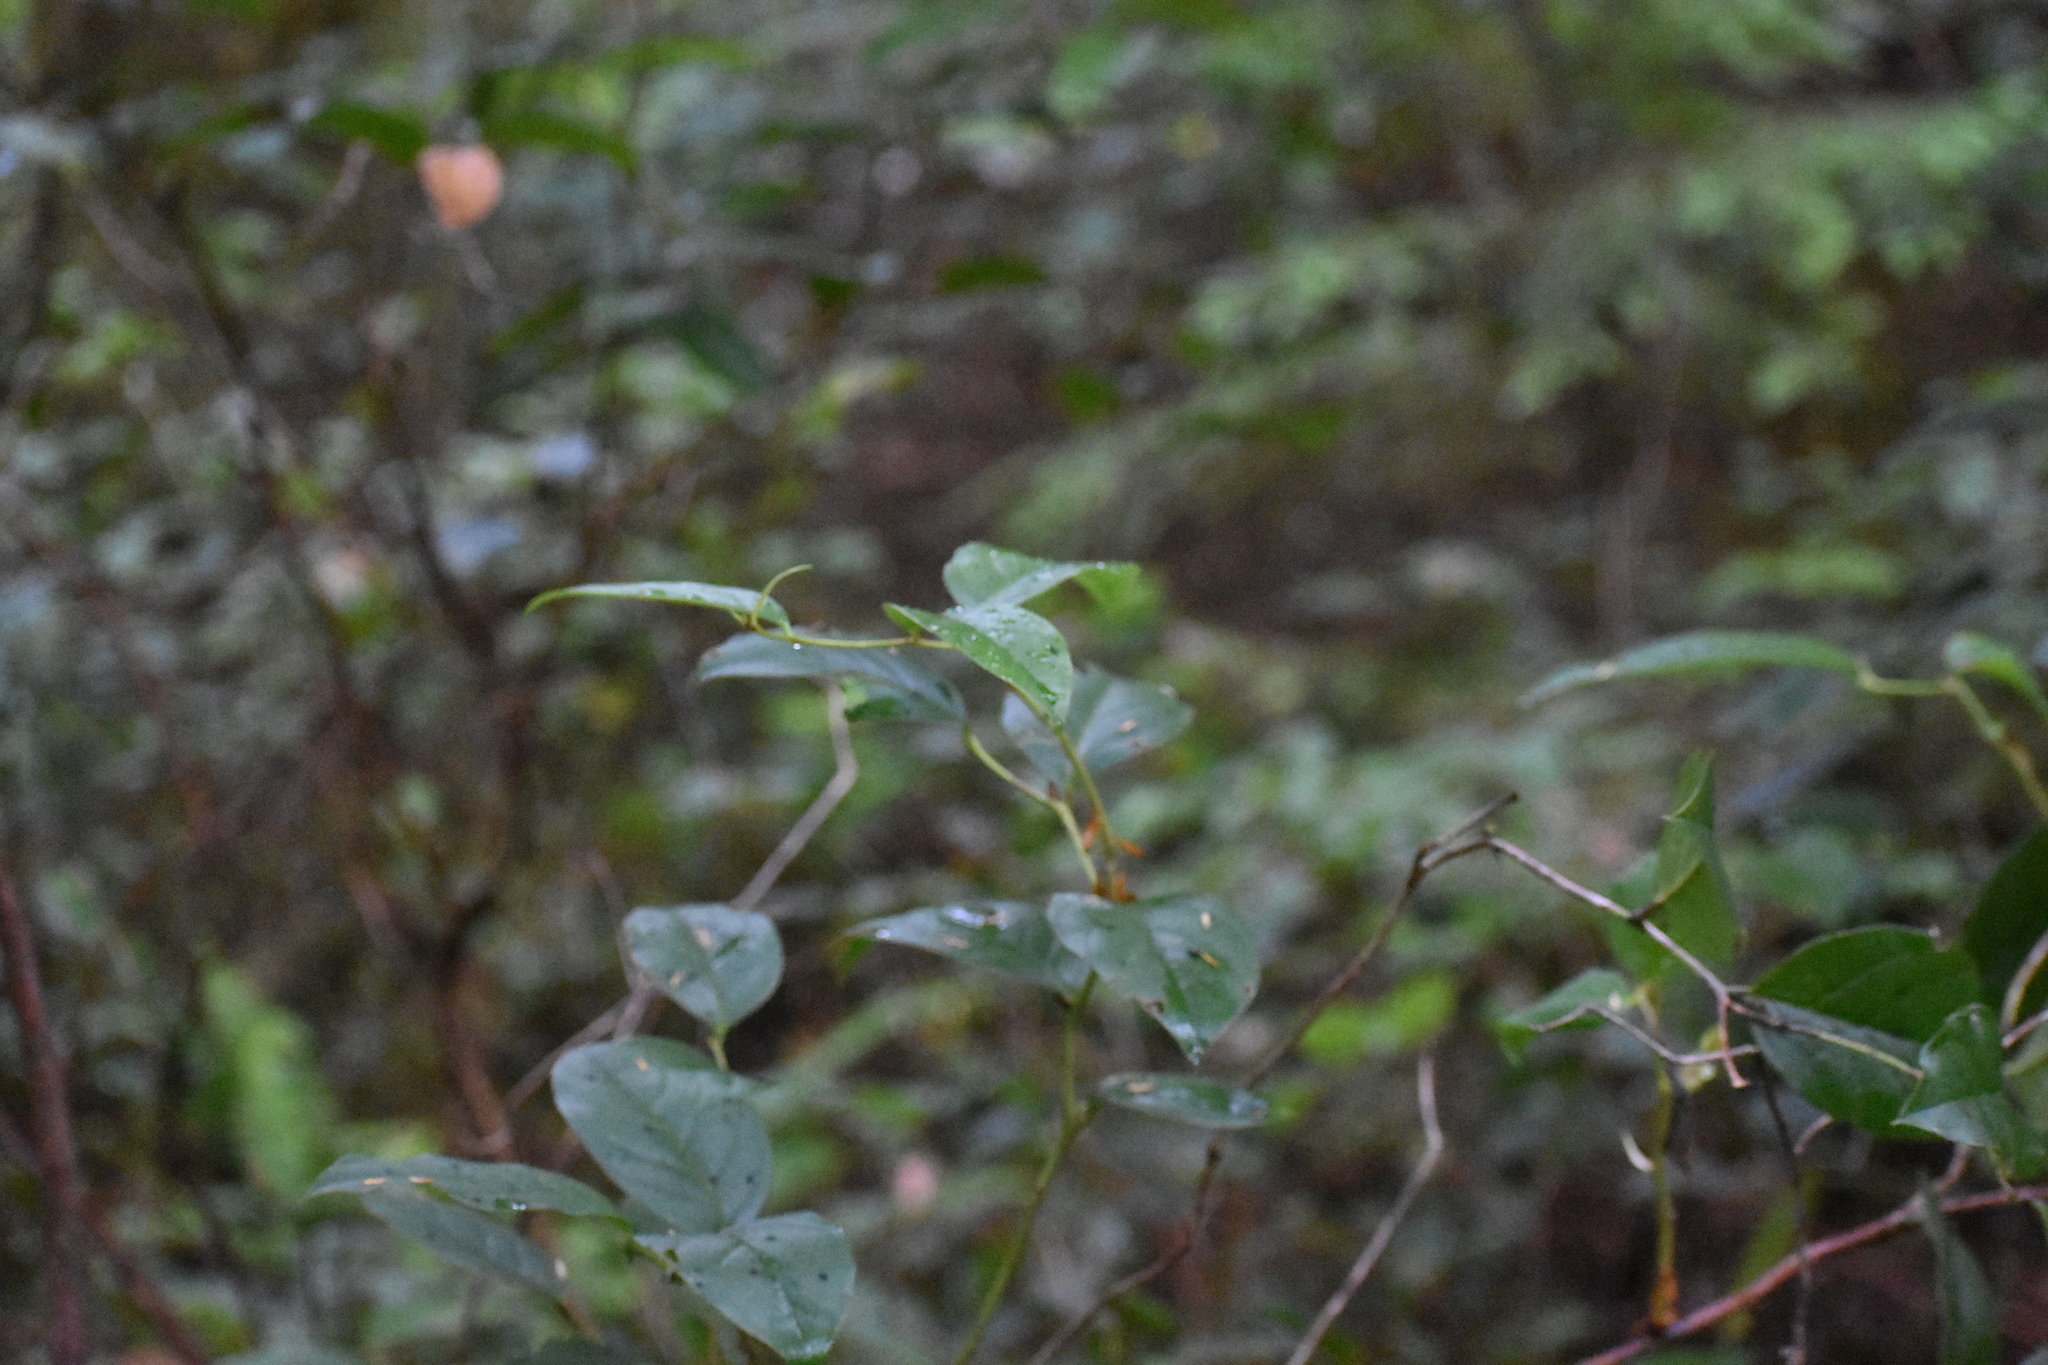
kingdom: Plantae
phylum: Tracheophyta
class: Magnoliopsida
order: Ericales
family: Ericaceae
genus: Gaultheria
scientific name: Gaultheria shallon
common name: Shallon
